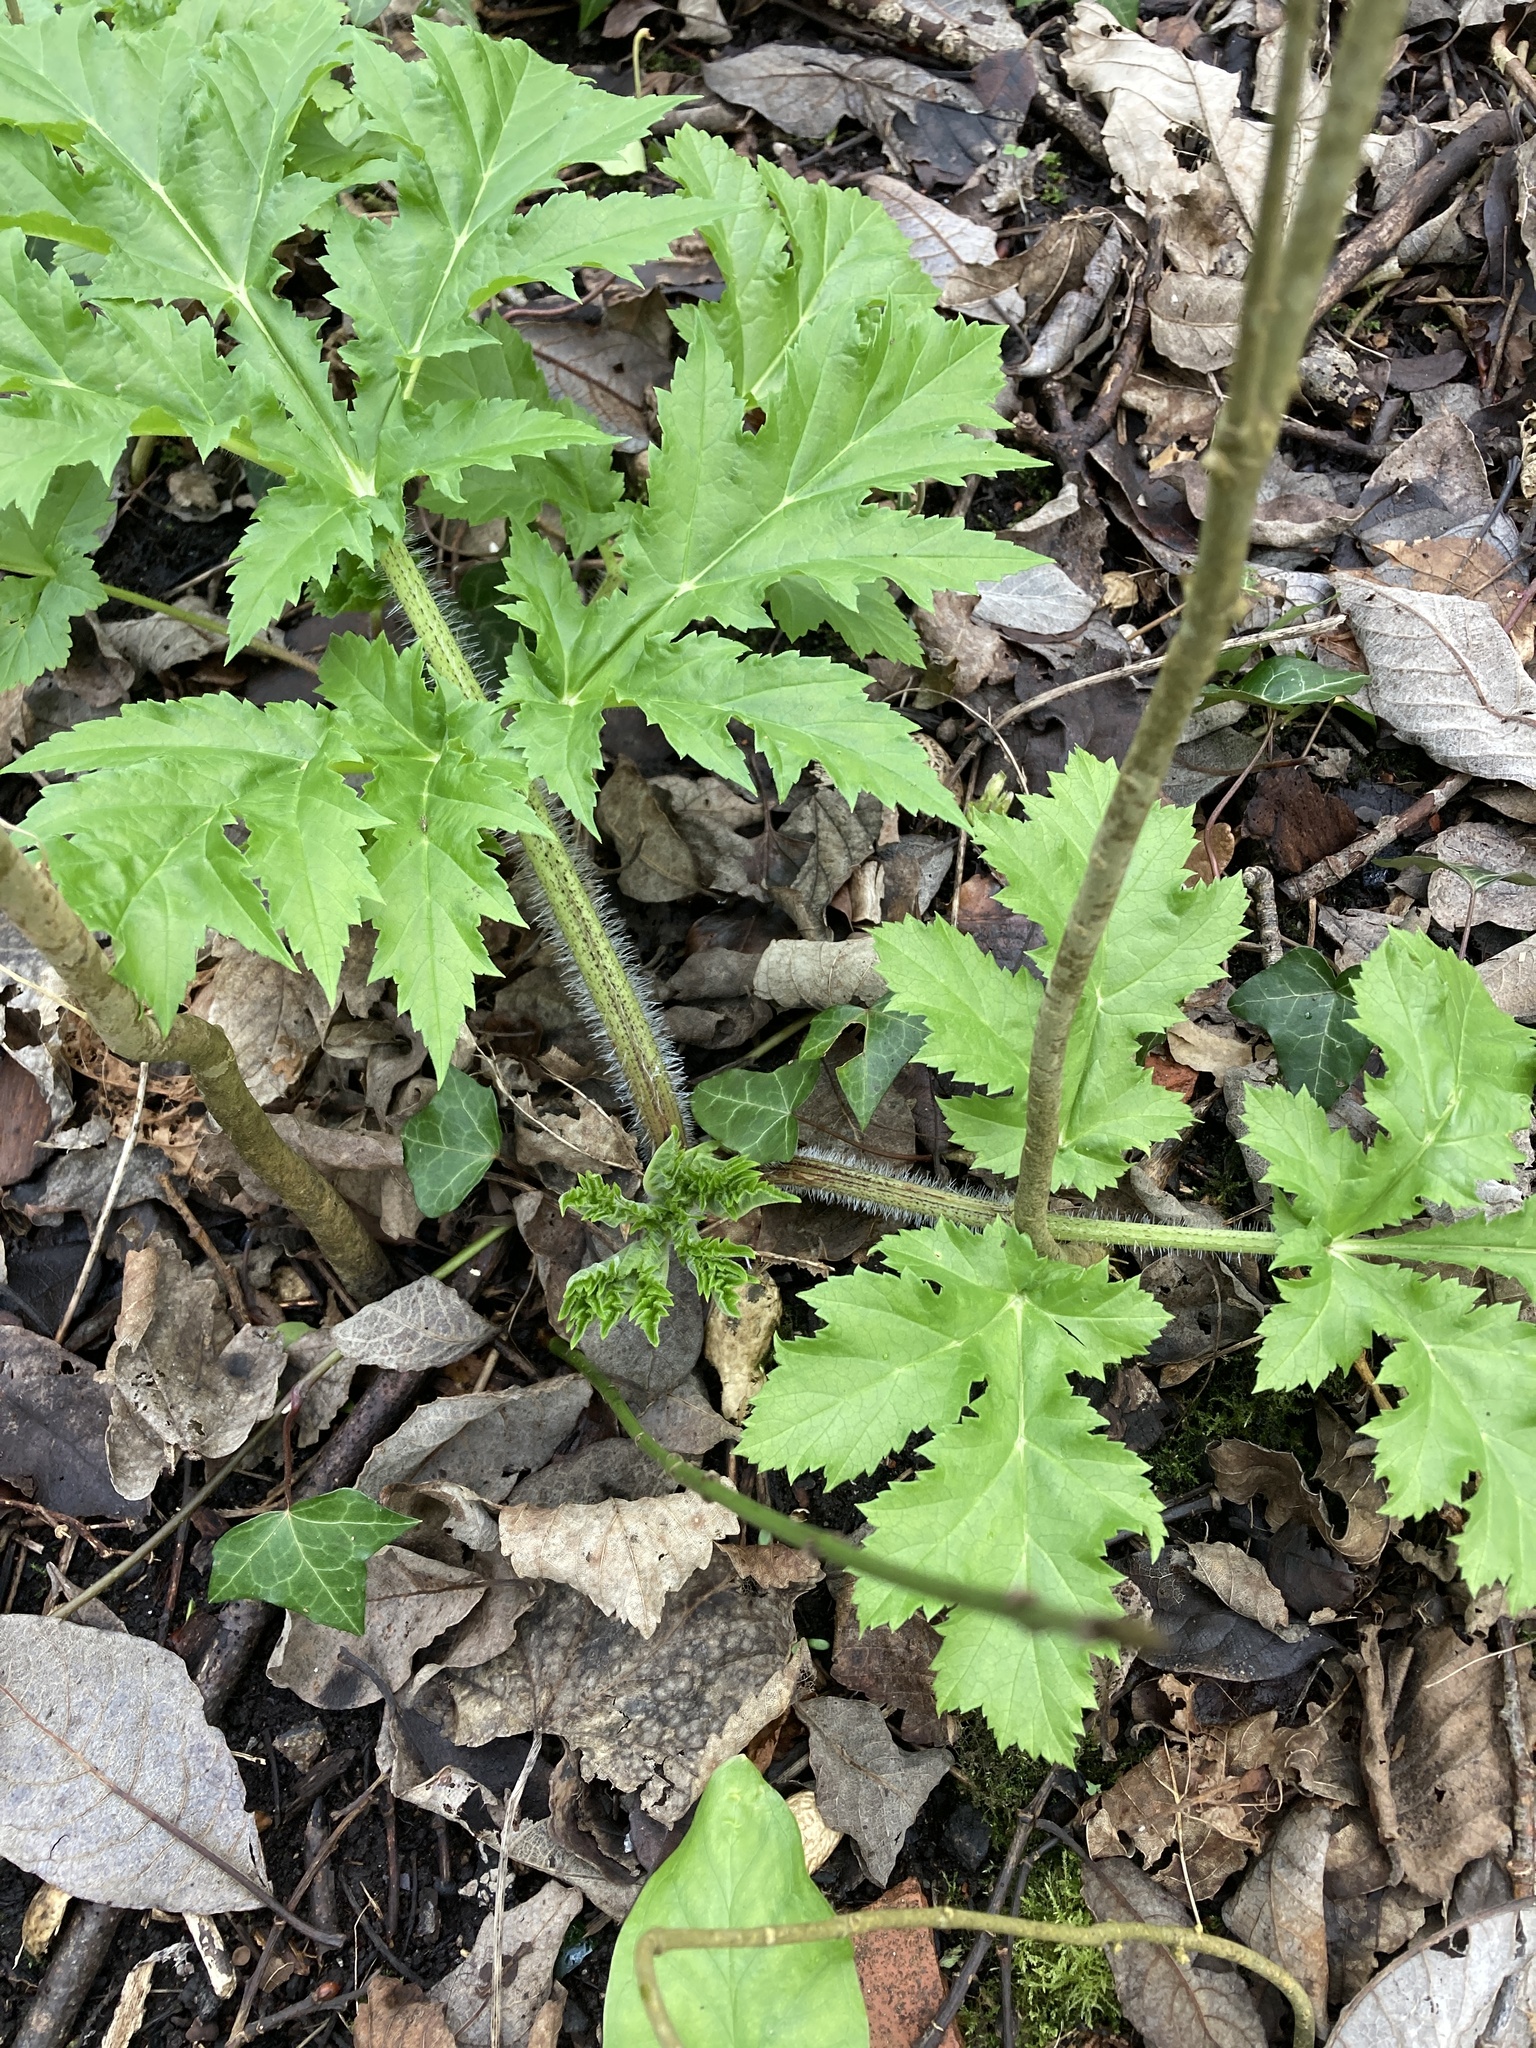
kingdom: Plantae
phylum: Tracheophyta
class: Magnoliopsida
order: Apiales
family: Apiaceae
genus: Heracleum
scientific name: Heracleum mantegazzianum
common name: Giant hogweed
